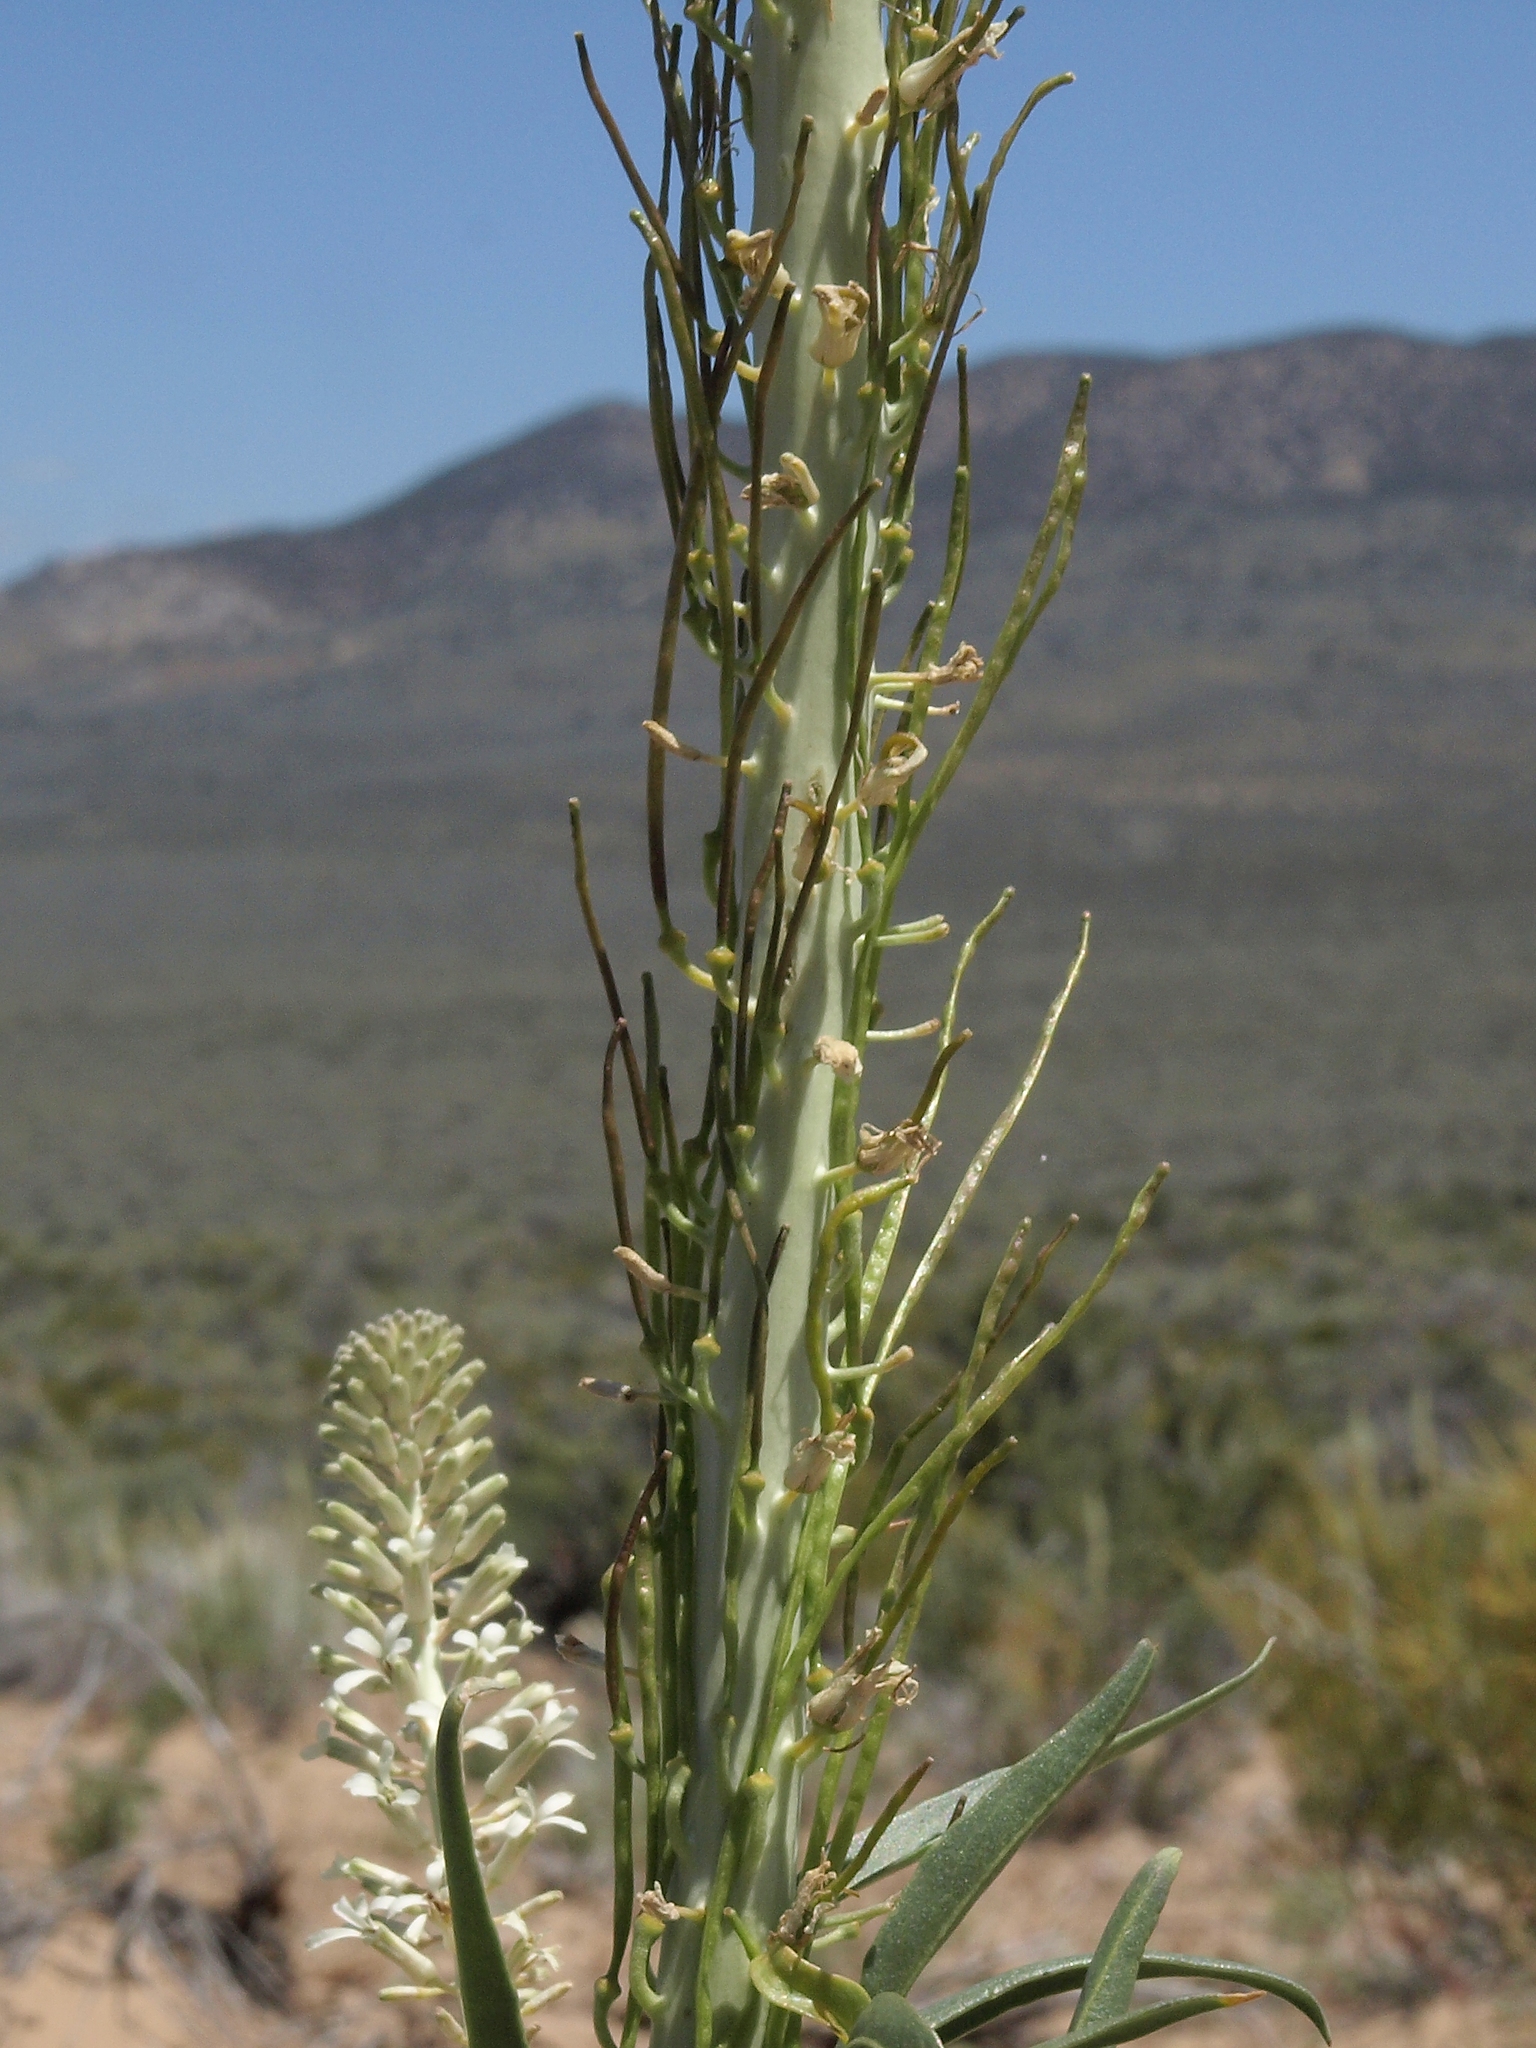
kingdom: Plantae
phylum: Tracheophyta
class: Magnoliopsida
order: Brassicales
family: Brassicaceae
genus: Thelypodium
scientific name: Thelypodium milleflorum
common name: Many-flowered thelypody
